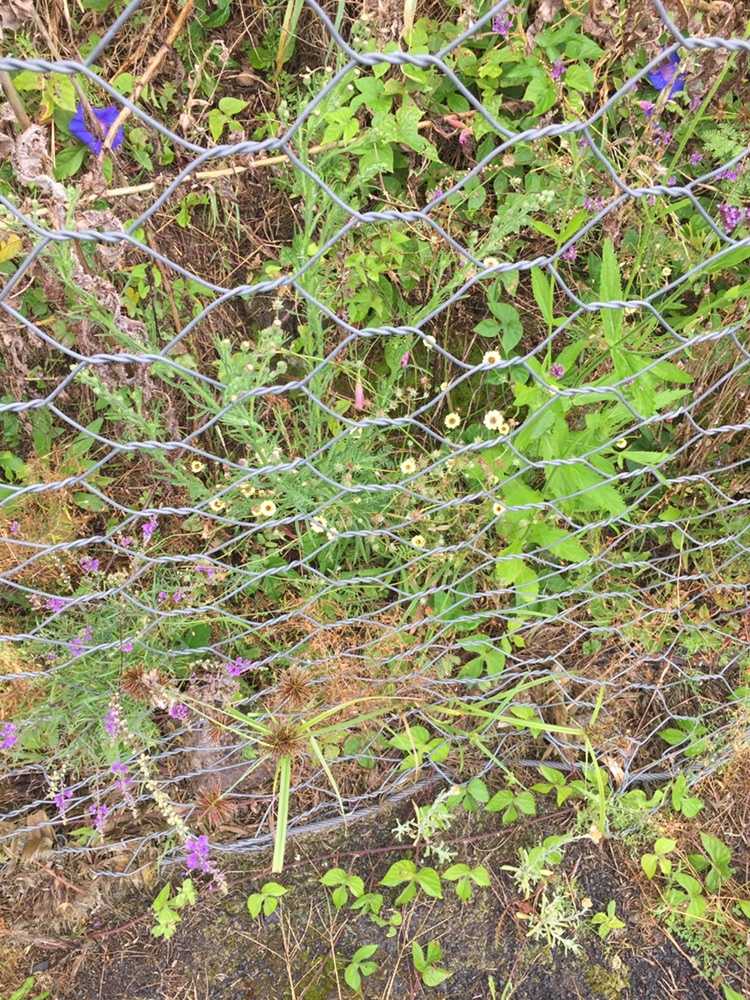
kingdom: Plantae
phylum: Tracheophyta
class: Magnoliopsida
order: Asterales
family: Asteraceae
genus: Tolpis
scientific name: Tolpis barbata
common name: Yellow hawkweed
